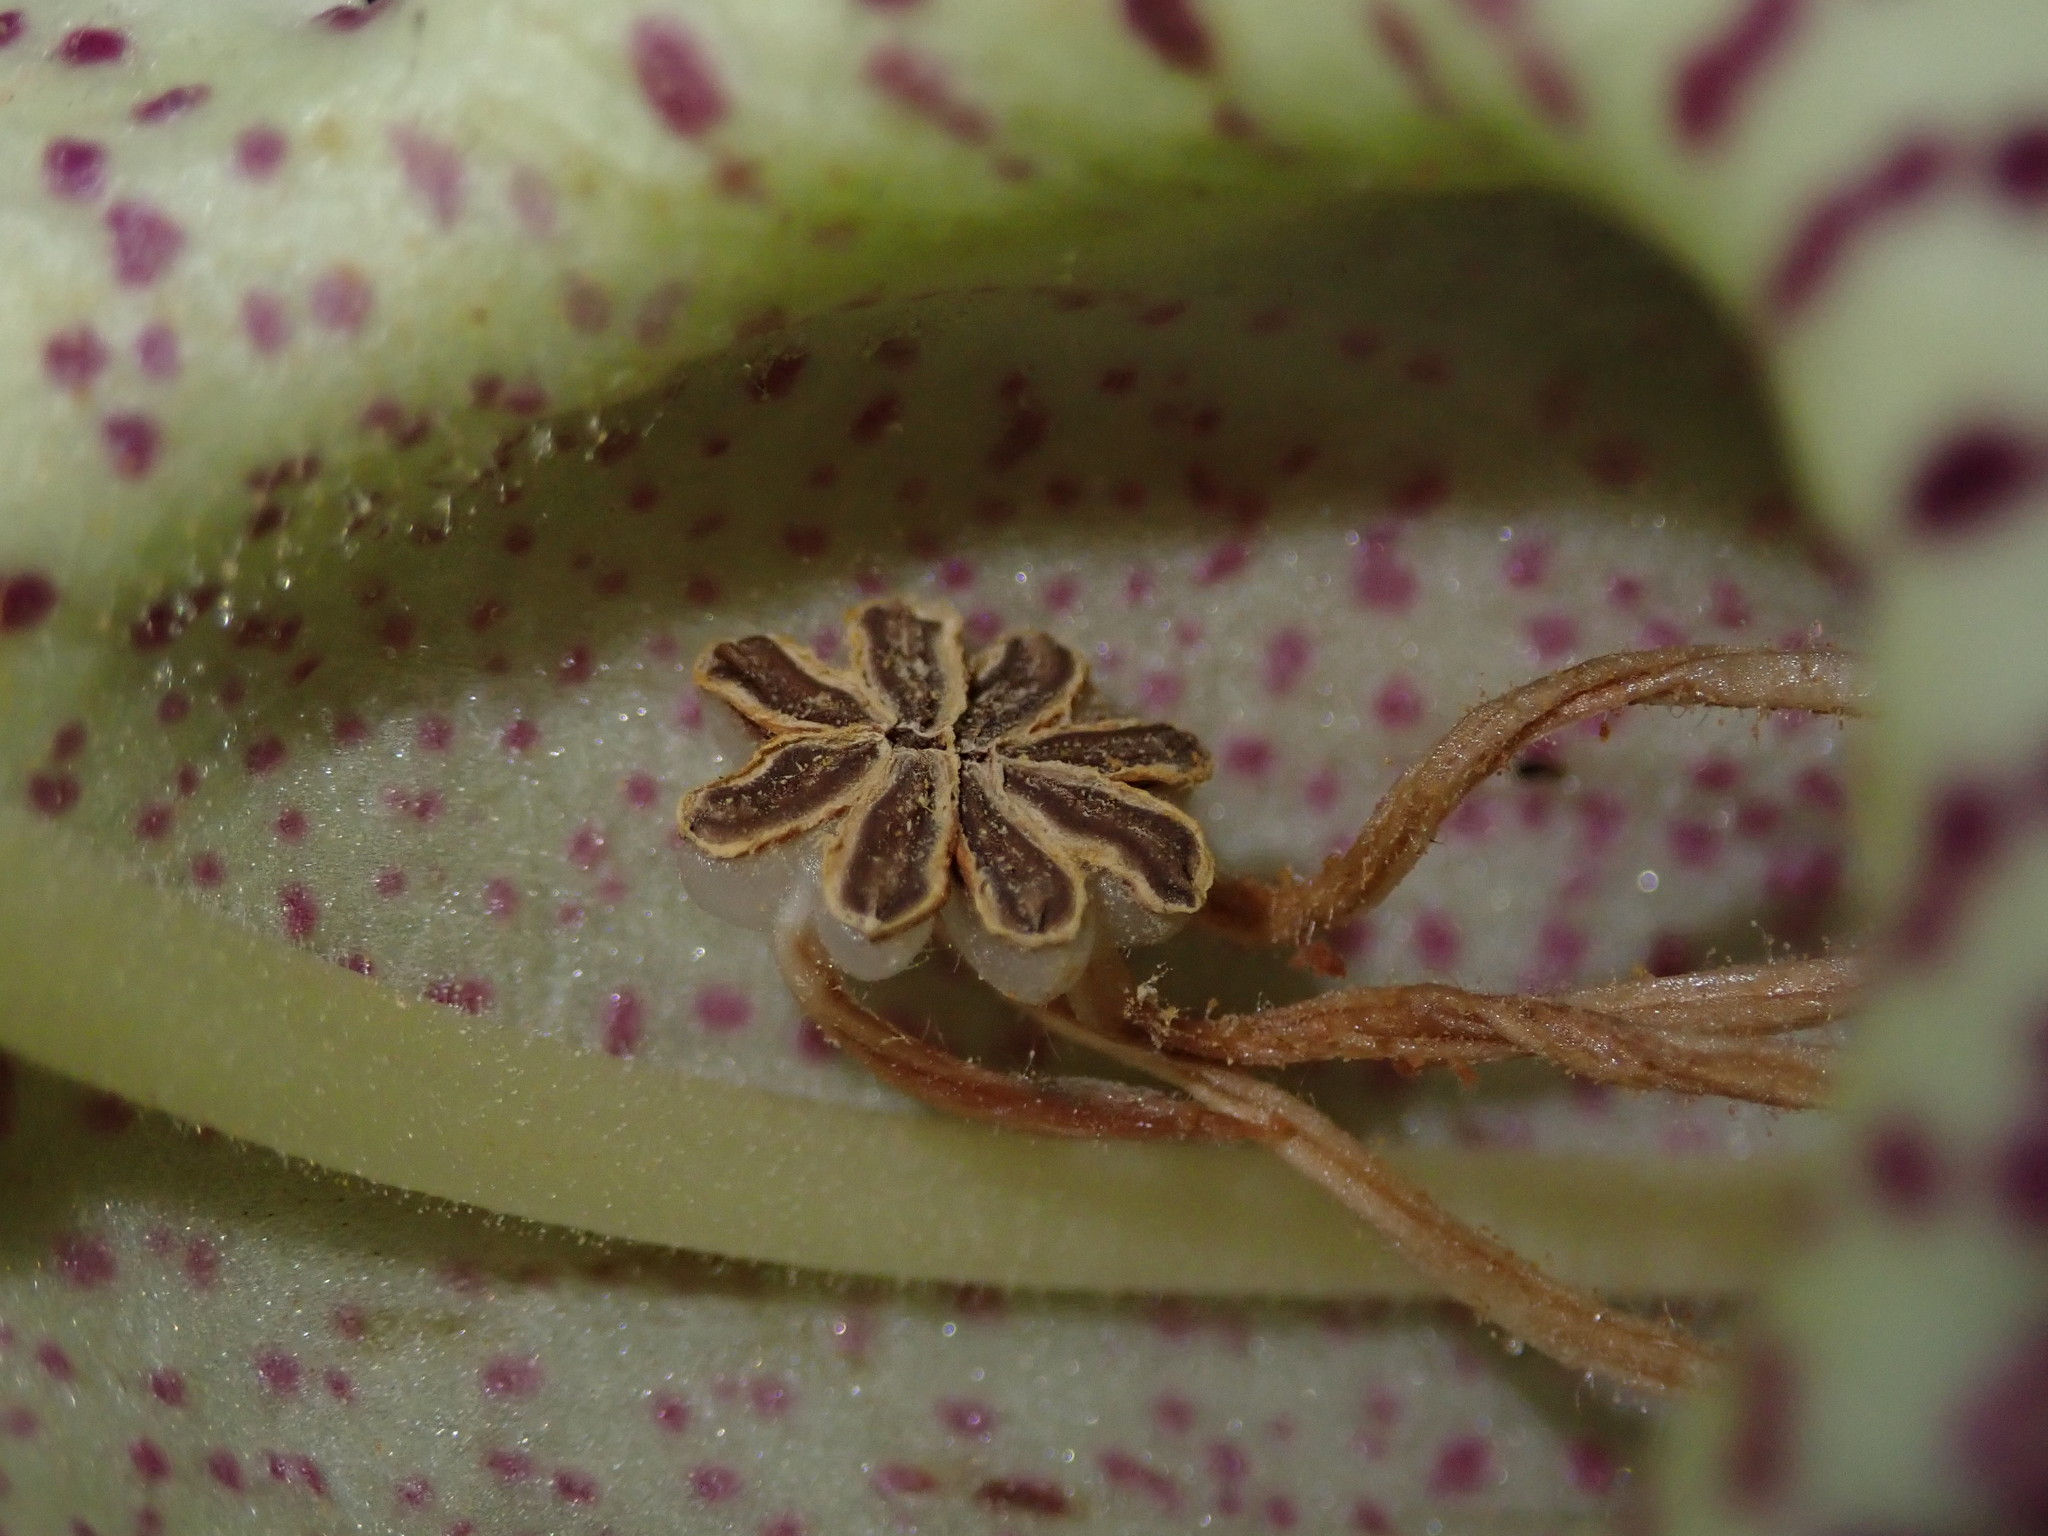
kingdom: Plantae
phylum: Tracheophyta
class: Magnoliopsida
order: Lamiales
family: Gesneriaceae
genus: Kohleria
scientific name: Kohleria tigridia
